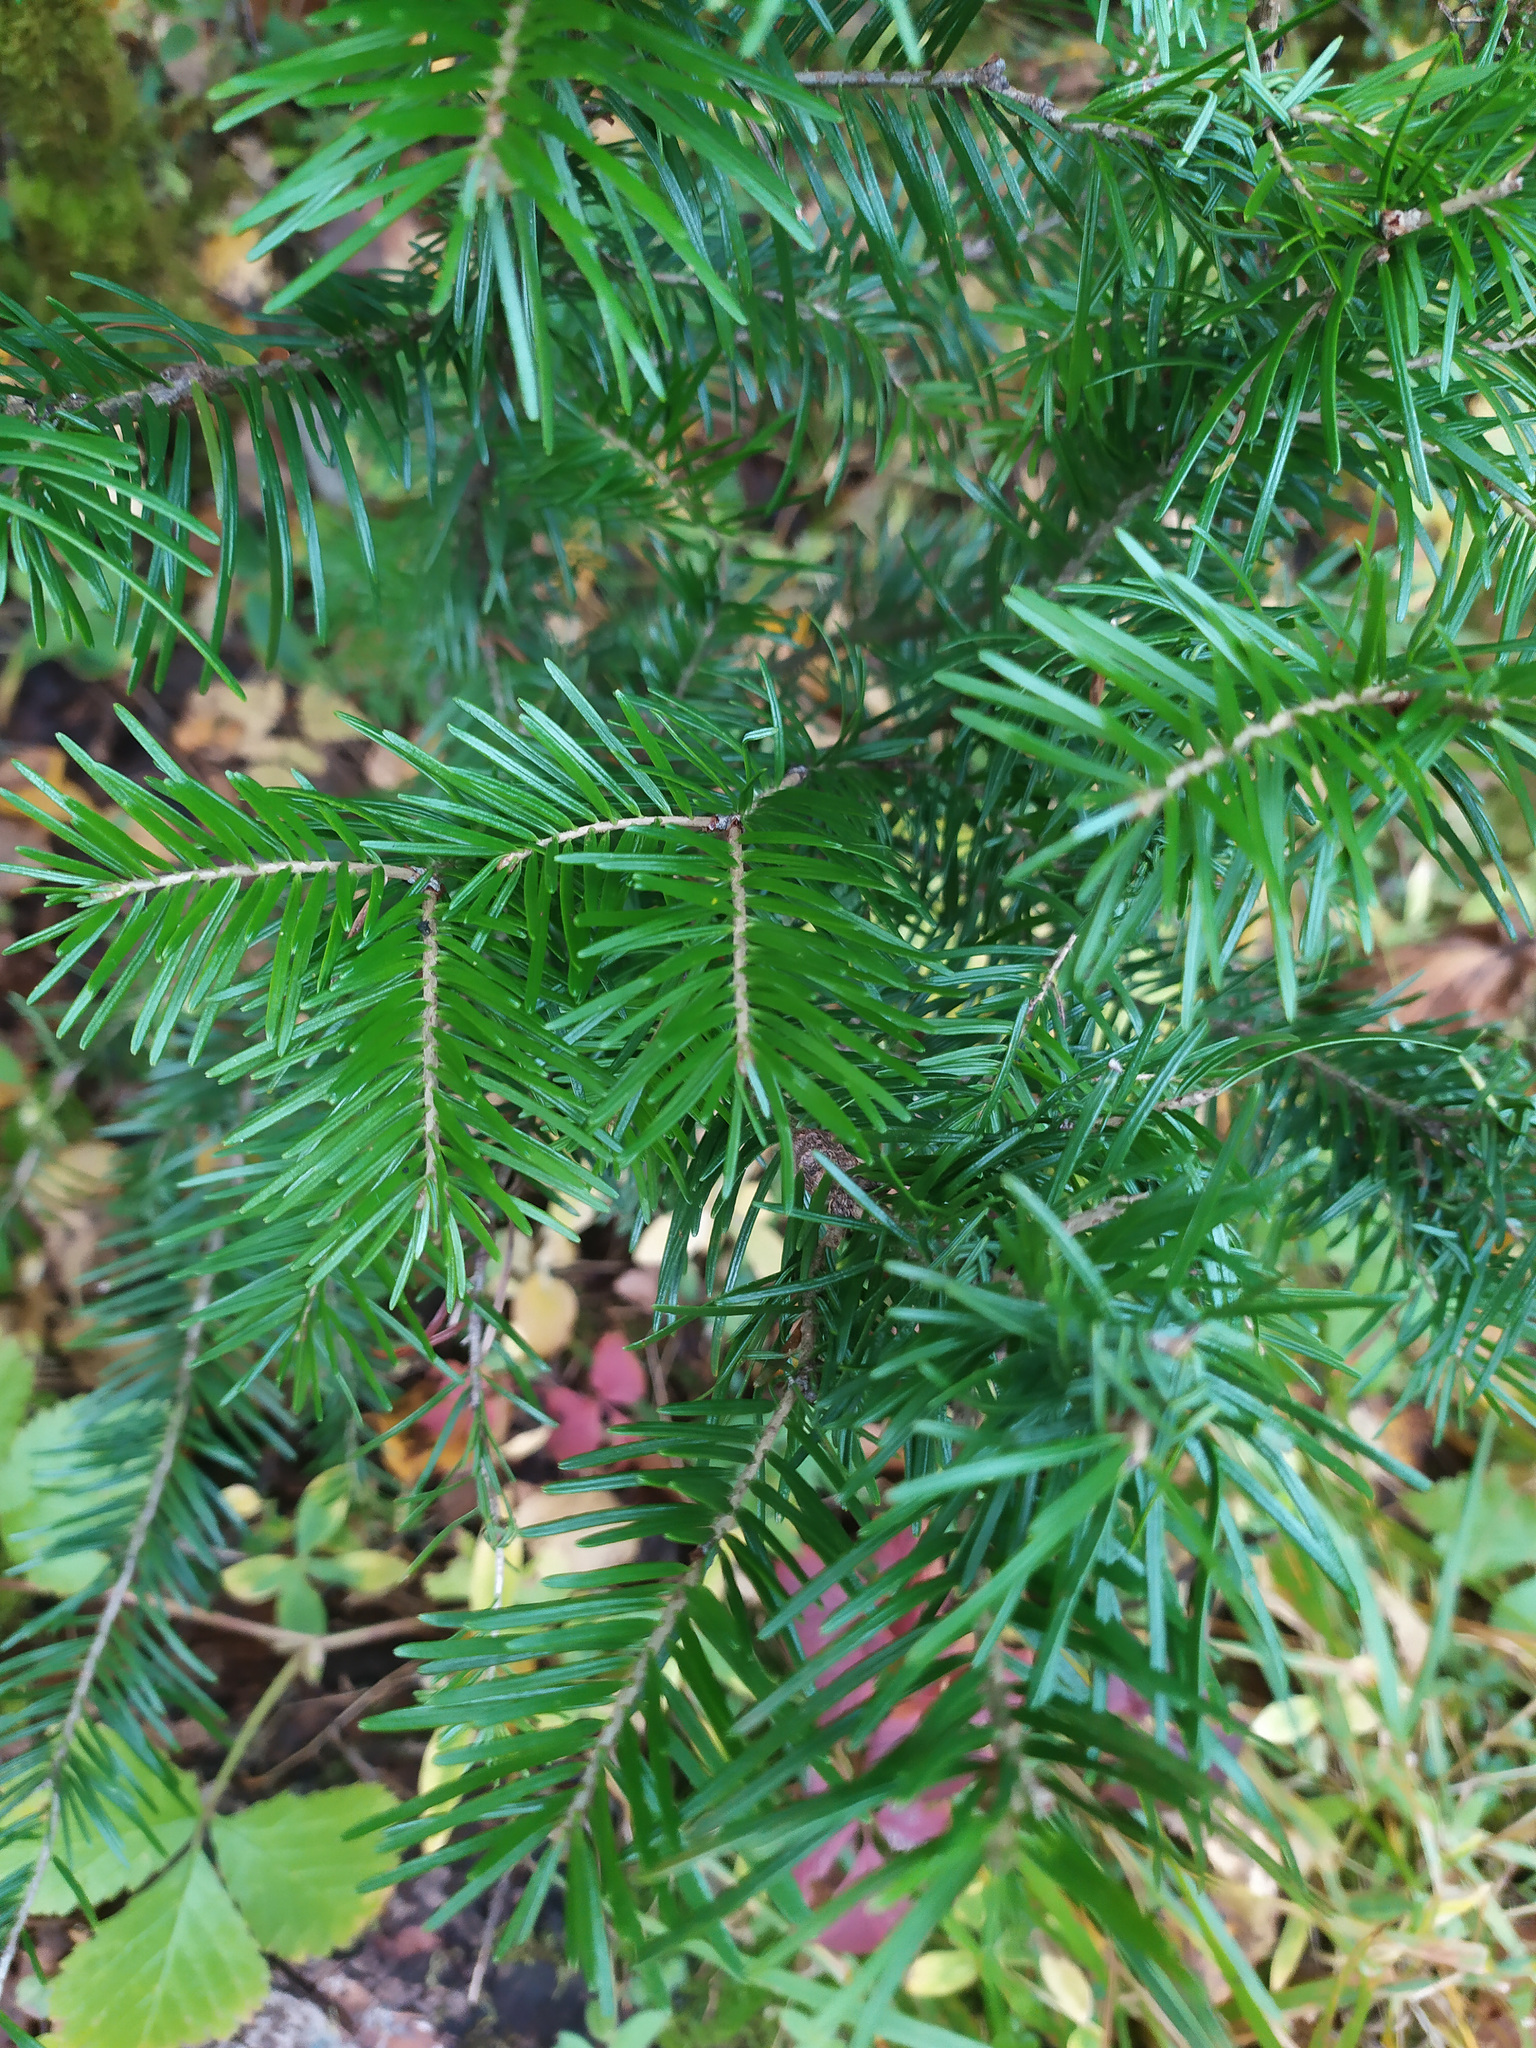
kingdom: Plantae
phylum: Tracheophyta
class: Pinopsida
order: Pinales
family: Pinaceae
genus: Abies
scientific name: Abies sibirica
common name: Siberian fir
